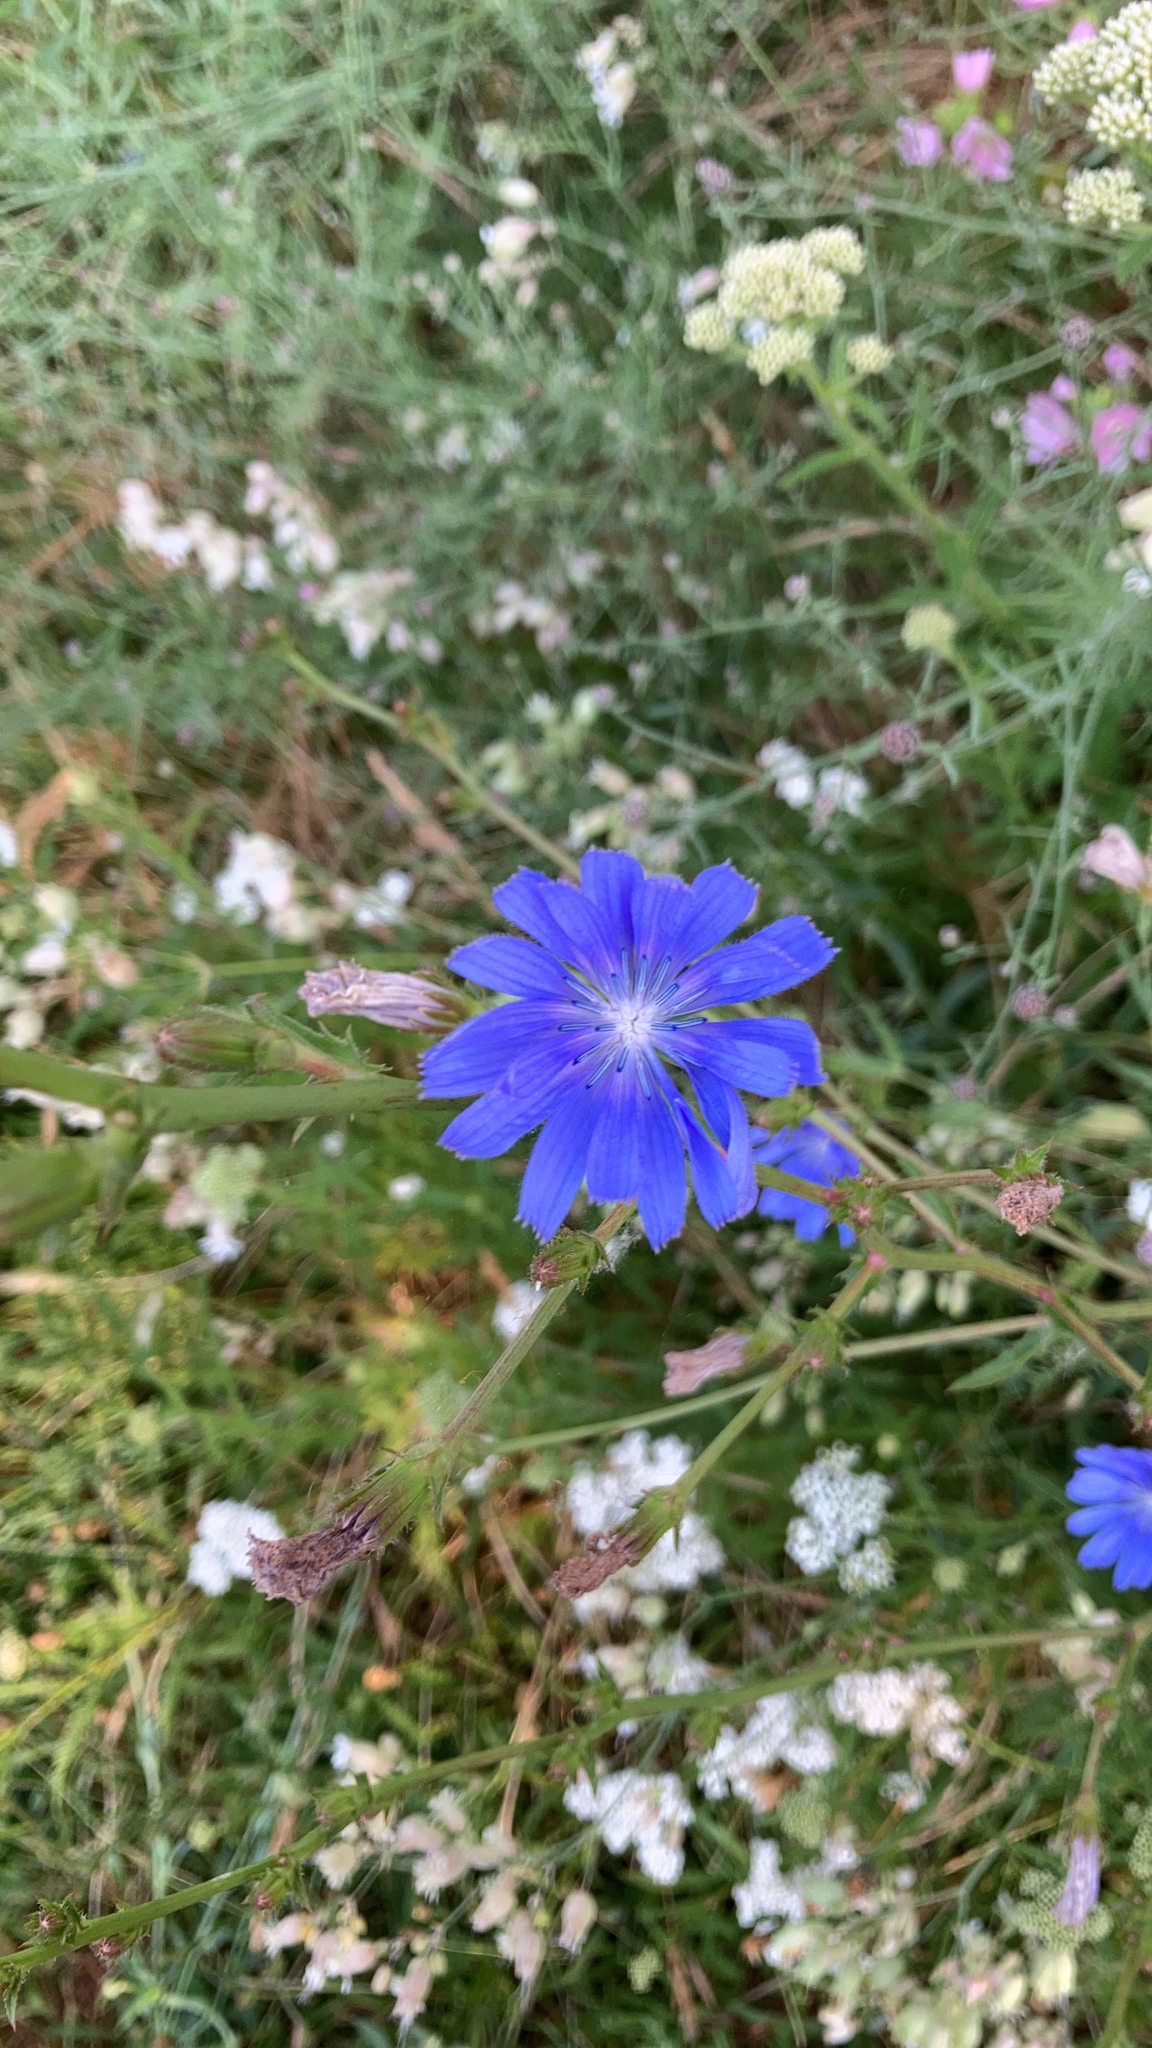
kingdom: Plantae
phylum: Tracheophyta
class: Magnoliopsida
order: Asterales
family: Asteraceae
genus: Cichorium
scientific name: Cichorium intybus
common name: Chicory
